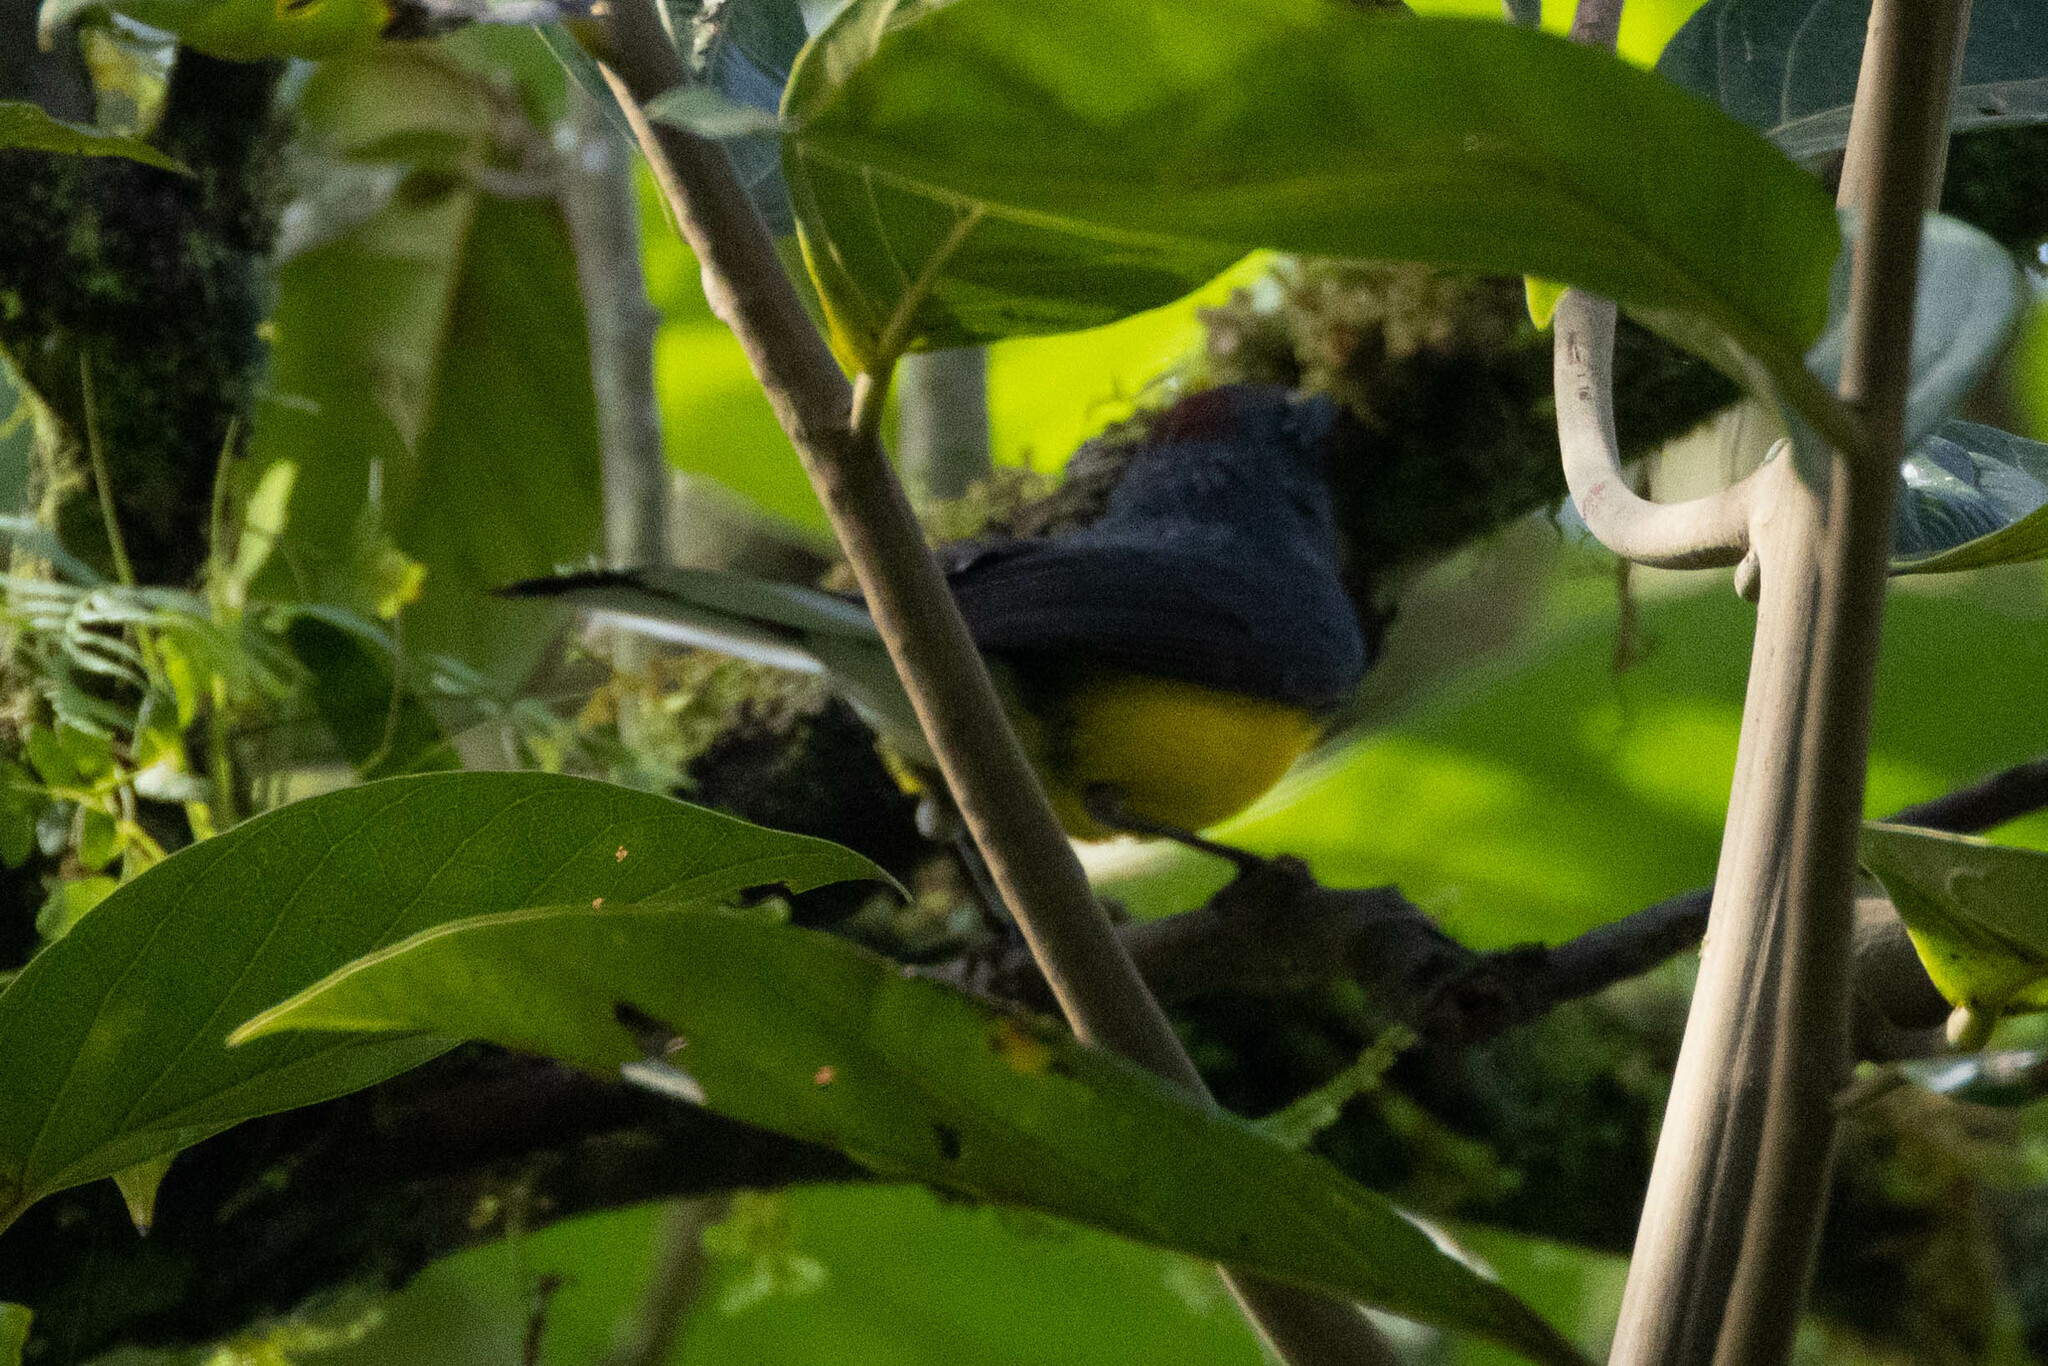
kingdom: Animalia
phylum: Chordata
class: Aves
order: Passeriformes
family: Parulidae
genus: Myioborus
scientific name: Myioborus miniatus
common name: Slate-throated redstart
